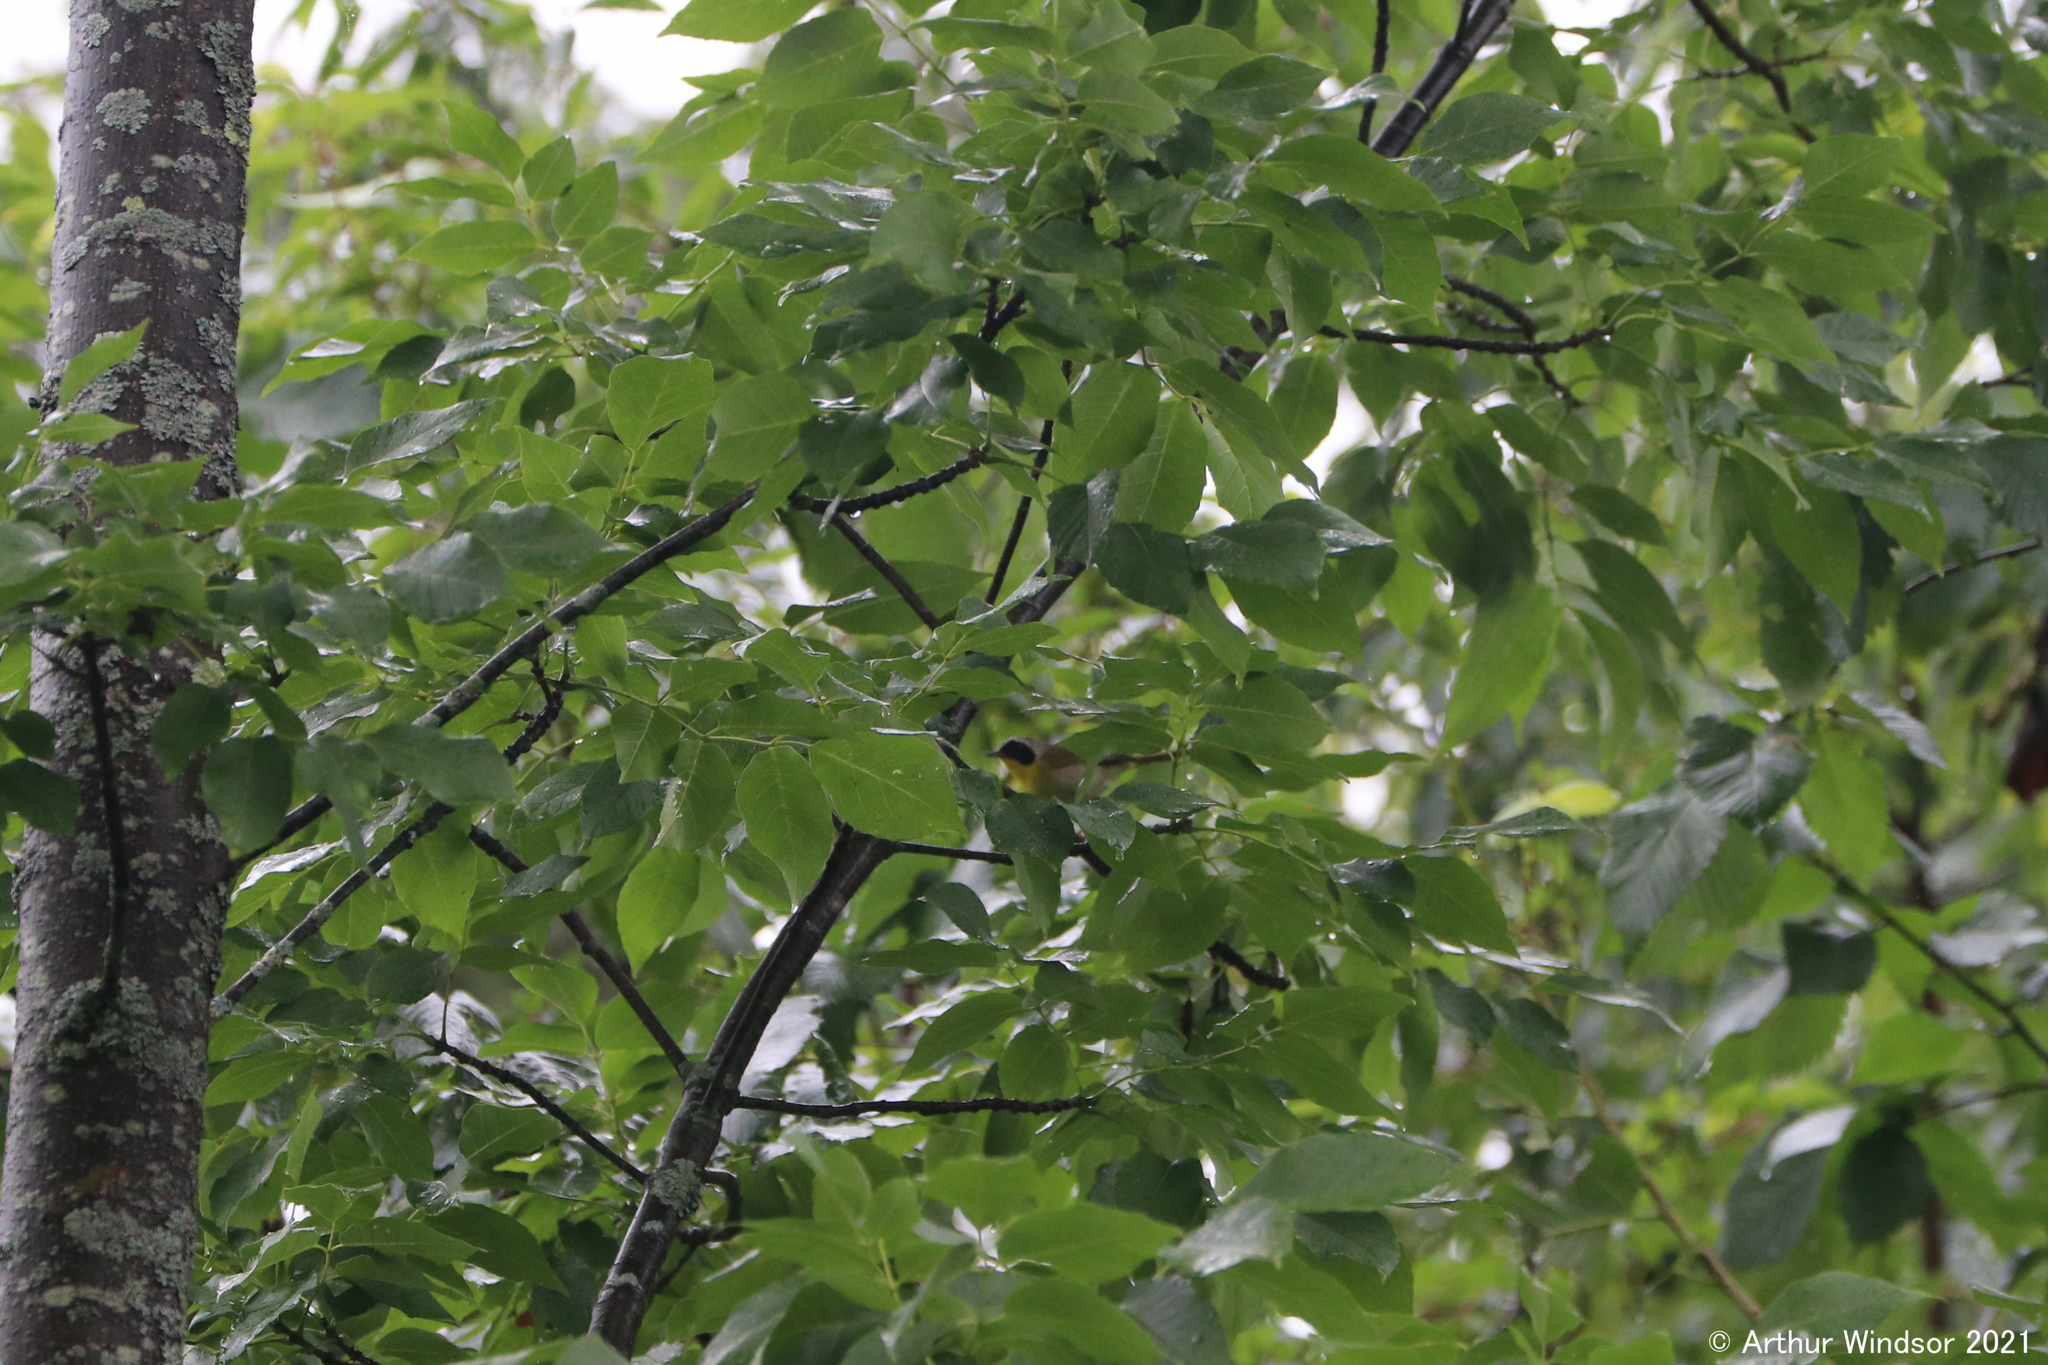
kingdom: Animalia
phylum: Chordata
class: Aves
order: Passeriformes
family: Parulidae
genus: Geothlypis
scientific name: Geothlypis trichas
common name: Common yellowthroat
